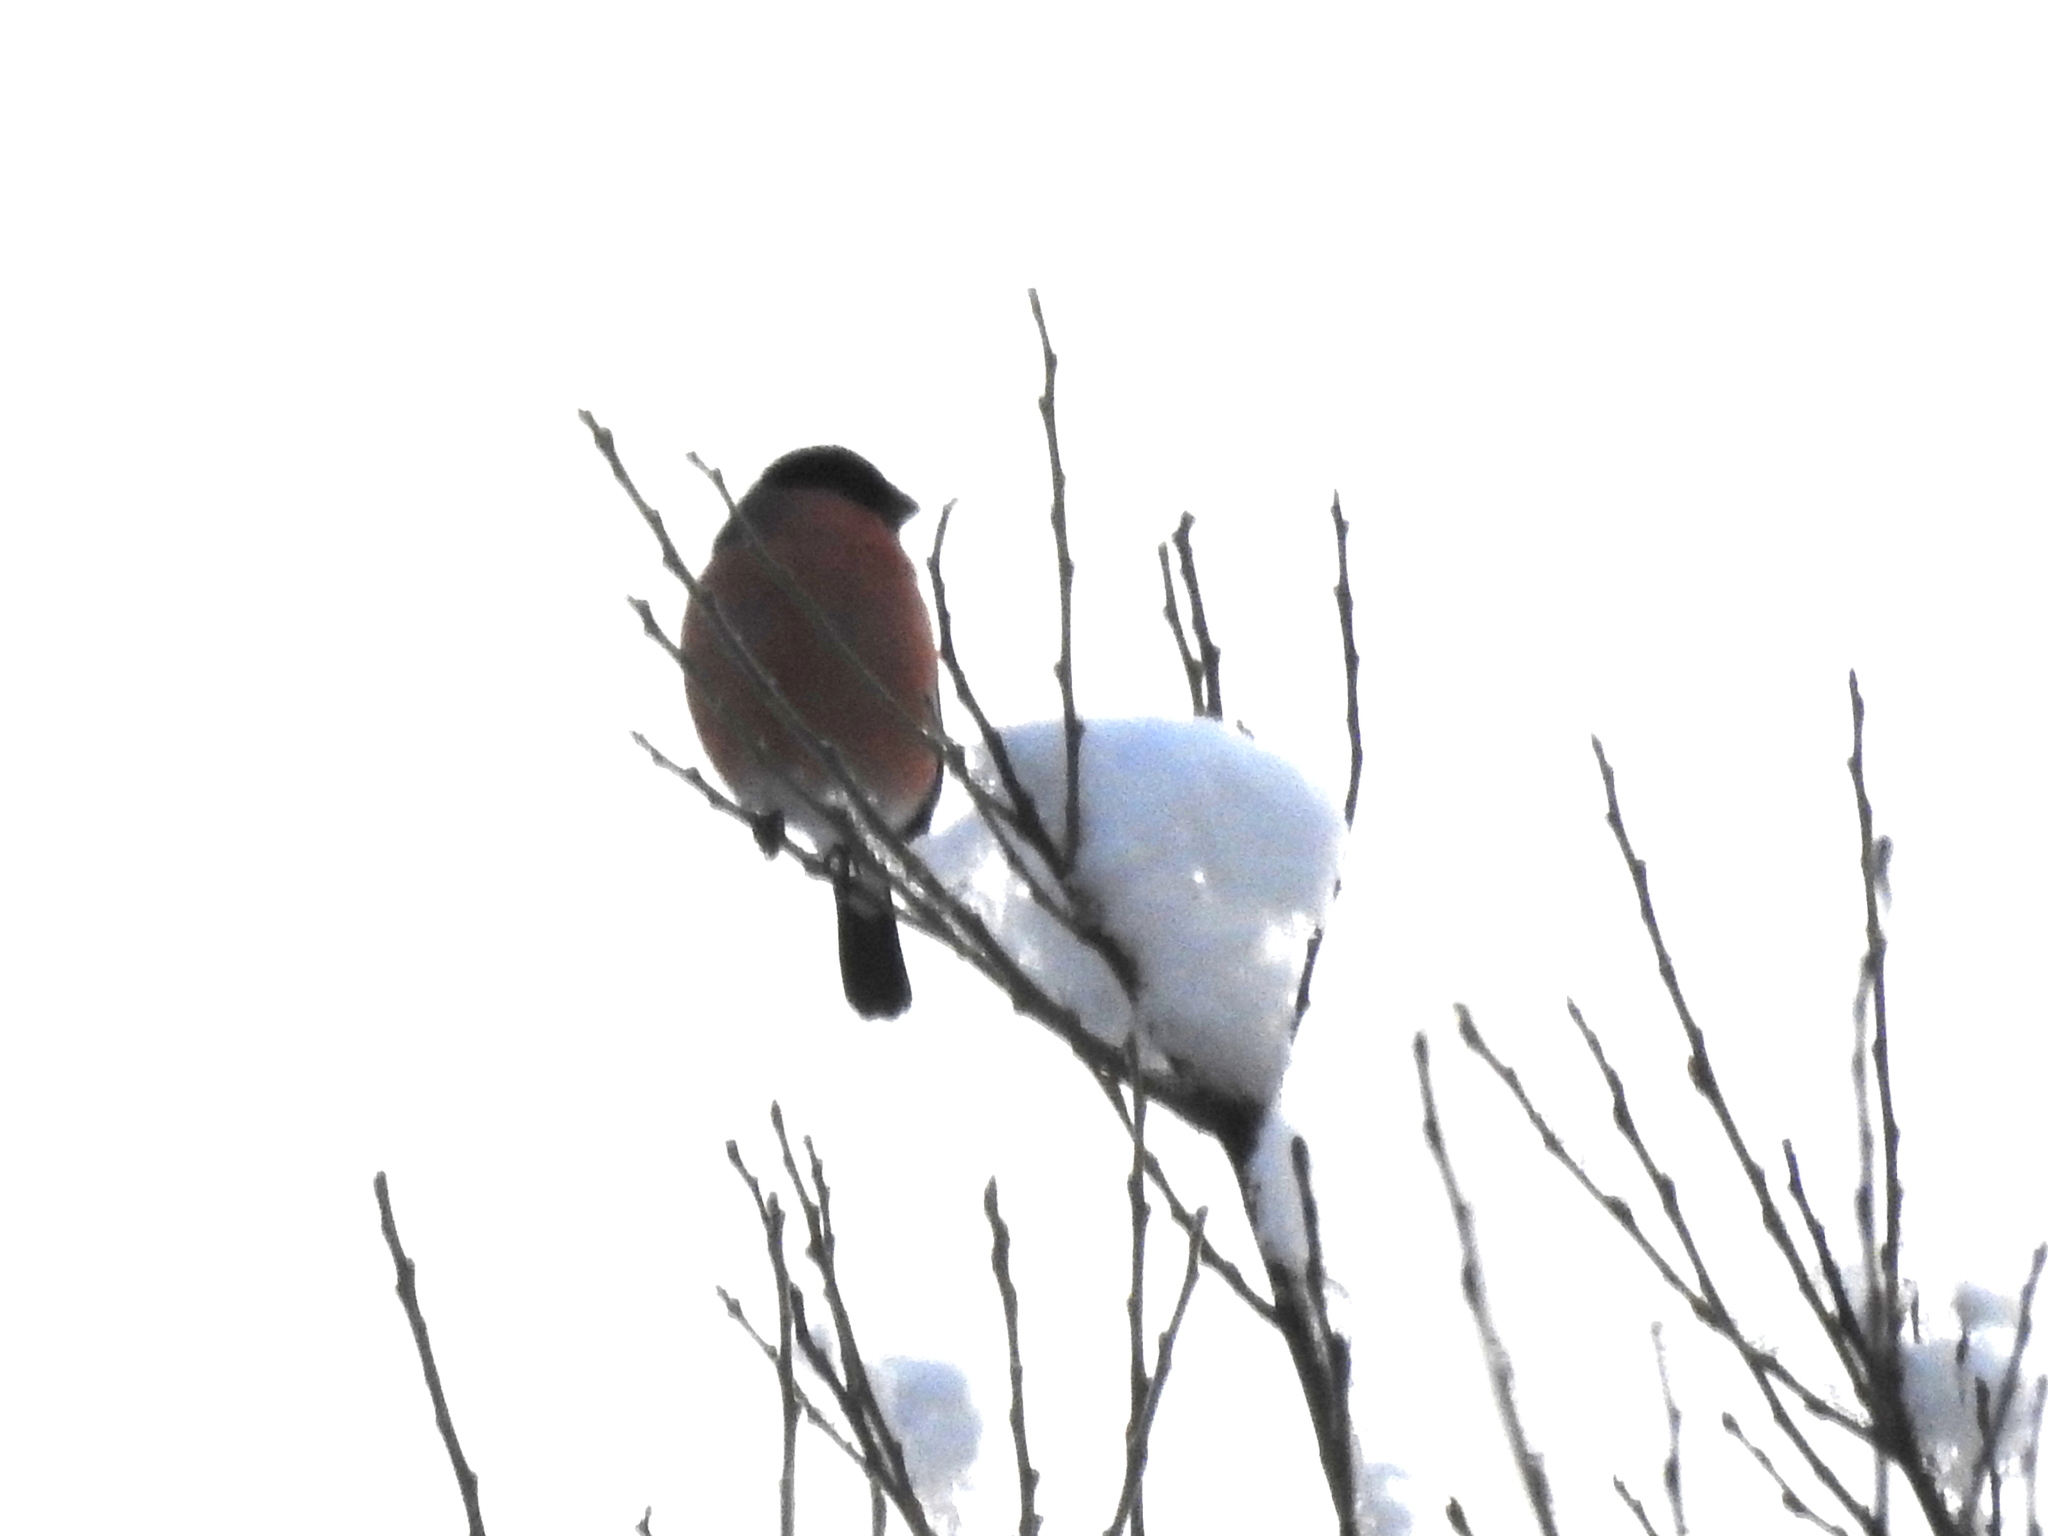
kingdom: Animalia
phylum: Chordata
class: Aves
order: Passeriformes
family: Fringillidae
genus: Pyrrhula
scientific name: Pyrrhula pyrrhula
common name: Eurasian bullfinch
